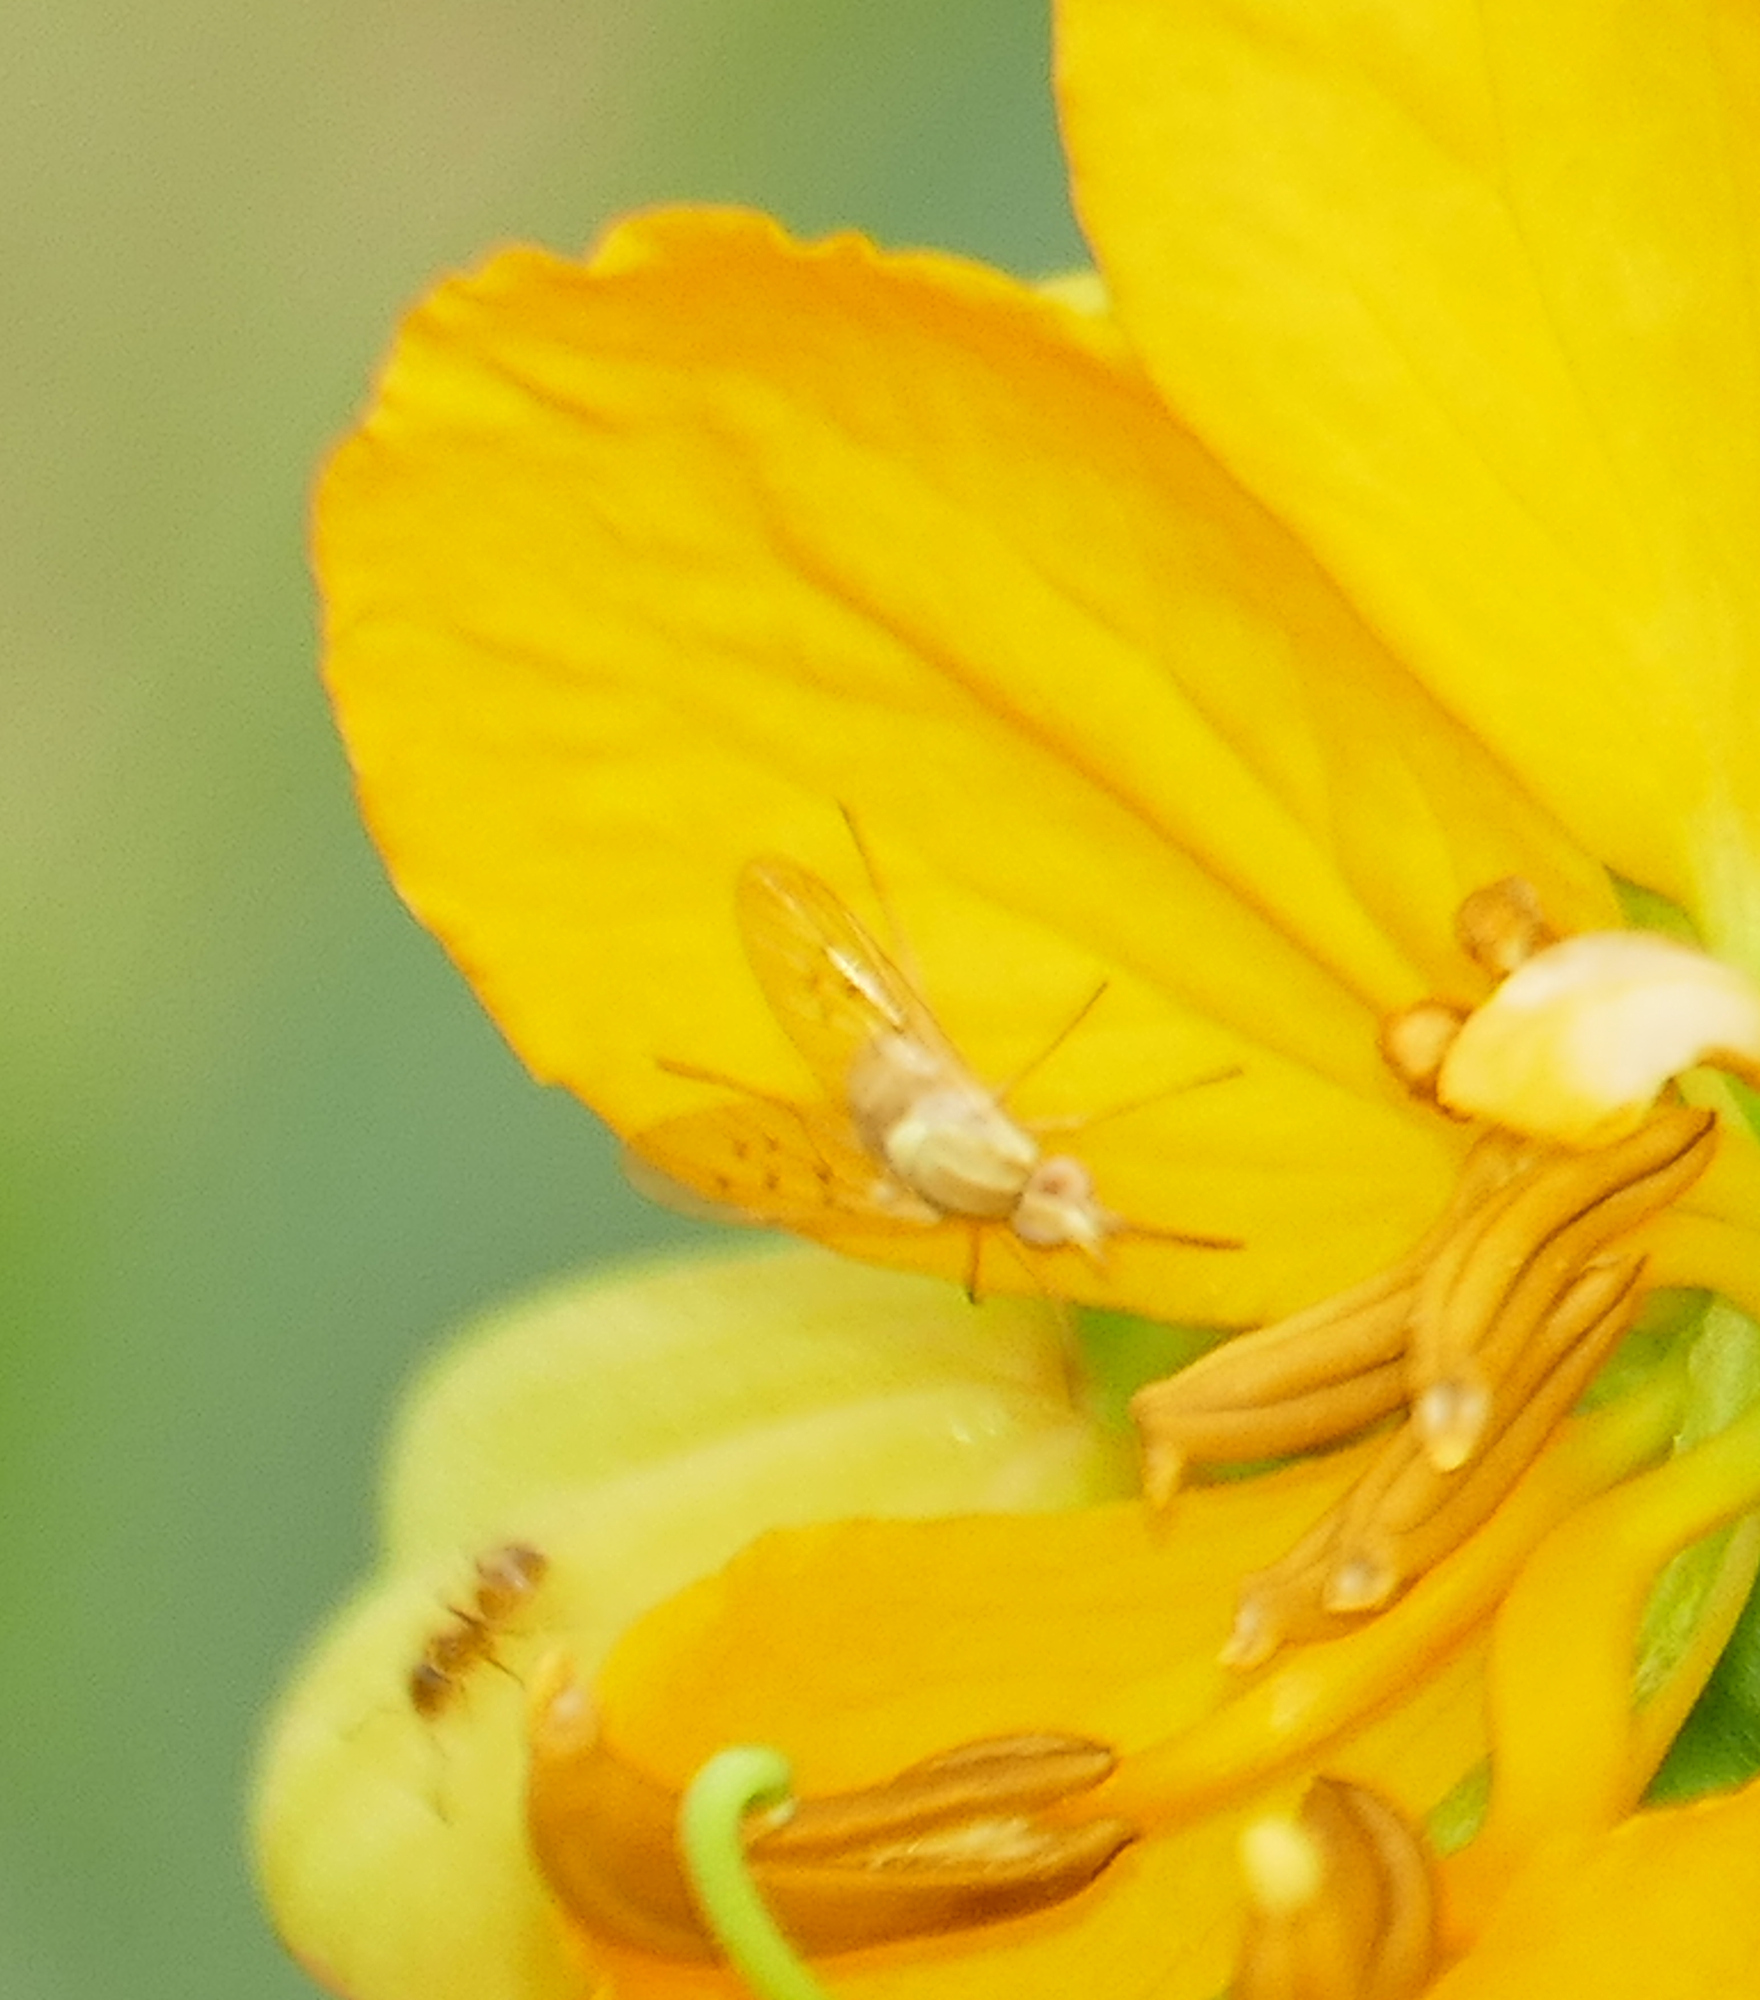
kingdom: Animalia
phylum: Arthropoda
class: Insecta
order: Diptera
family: Bombyliidae
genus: Poecilognathus
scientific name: Poecilognathus unimaculatus
